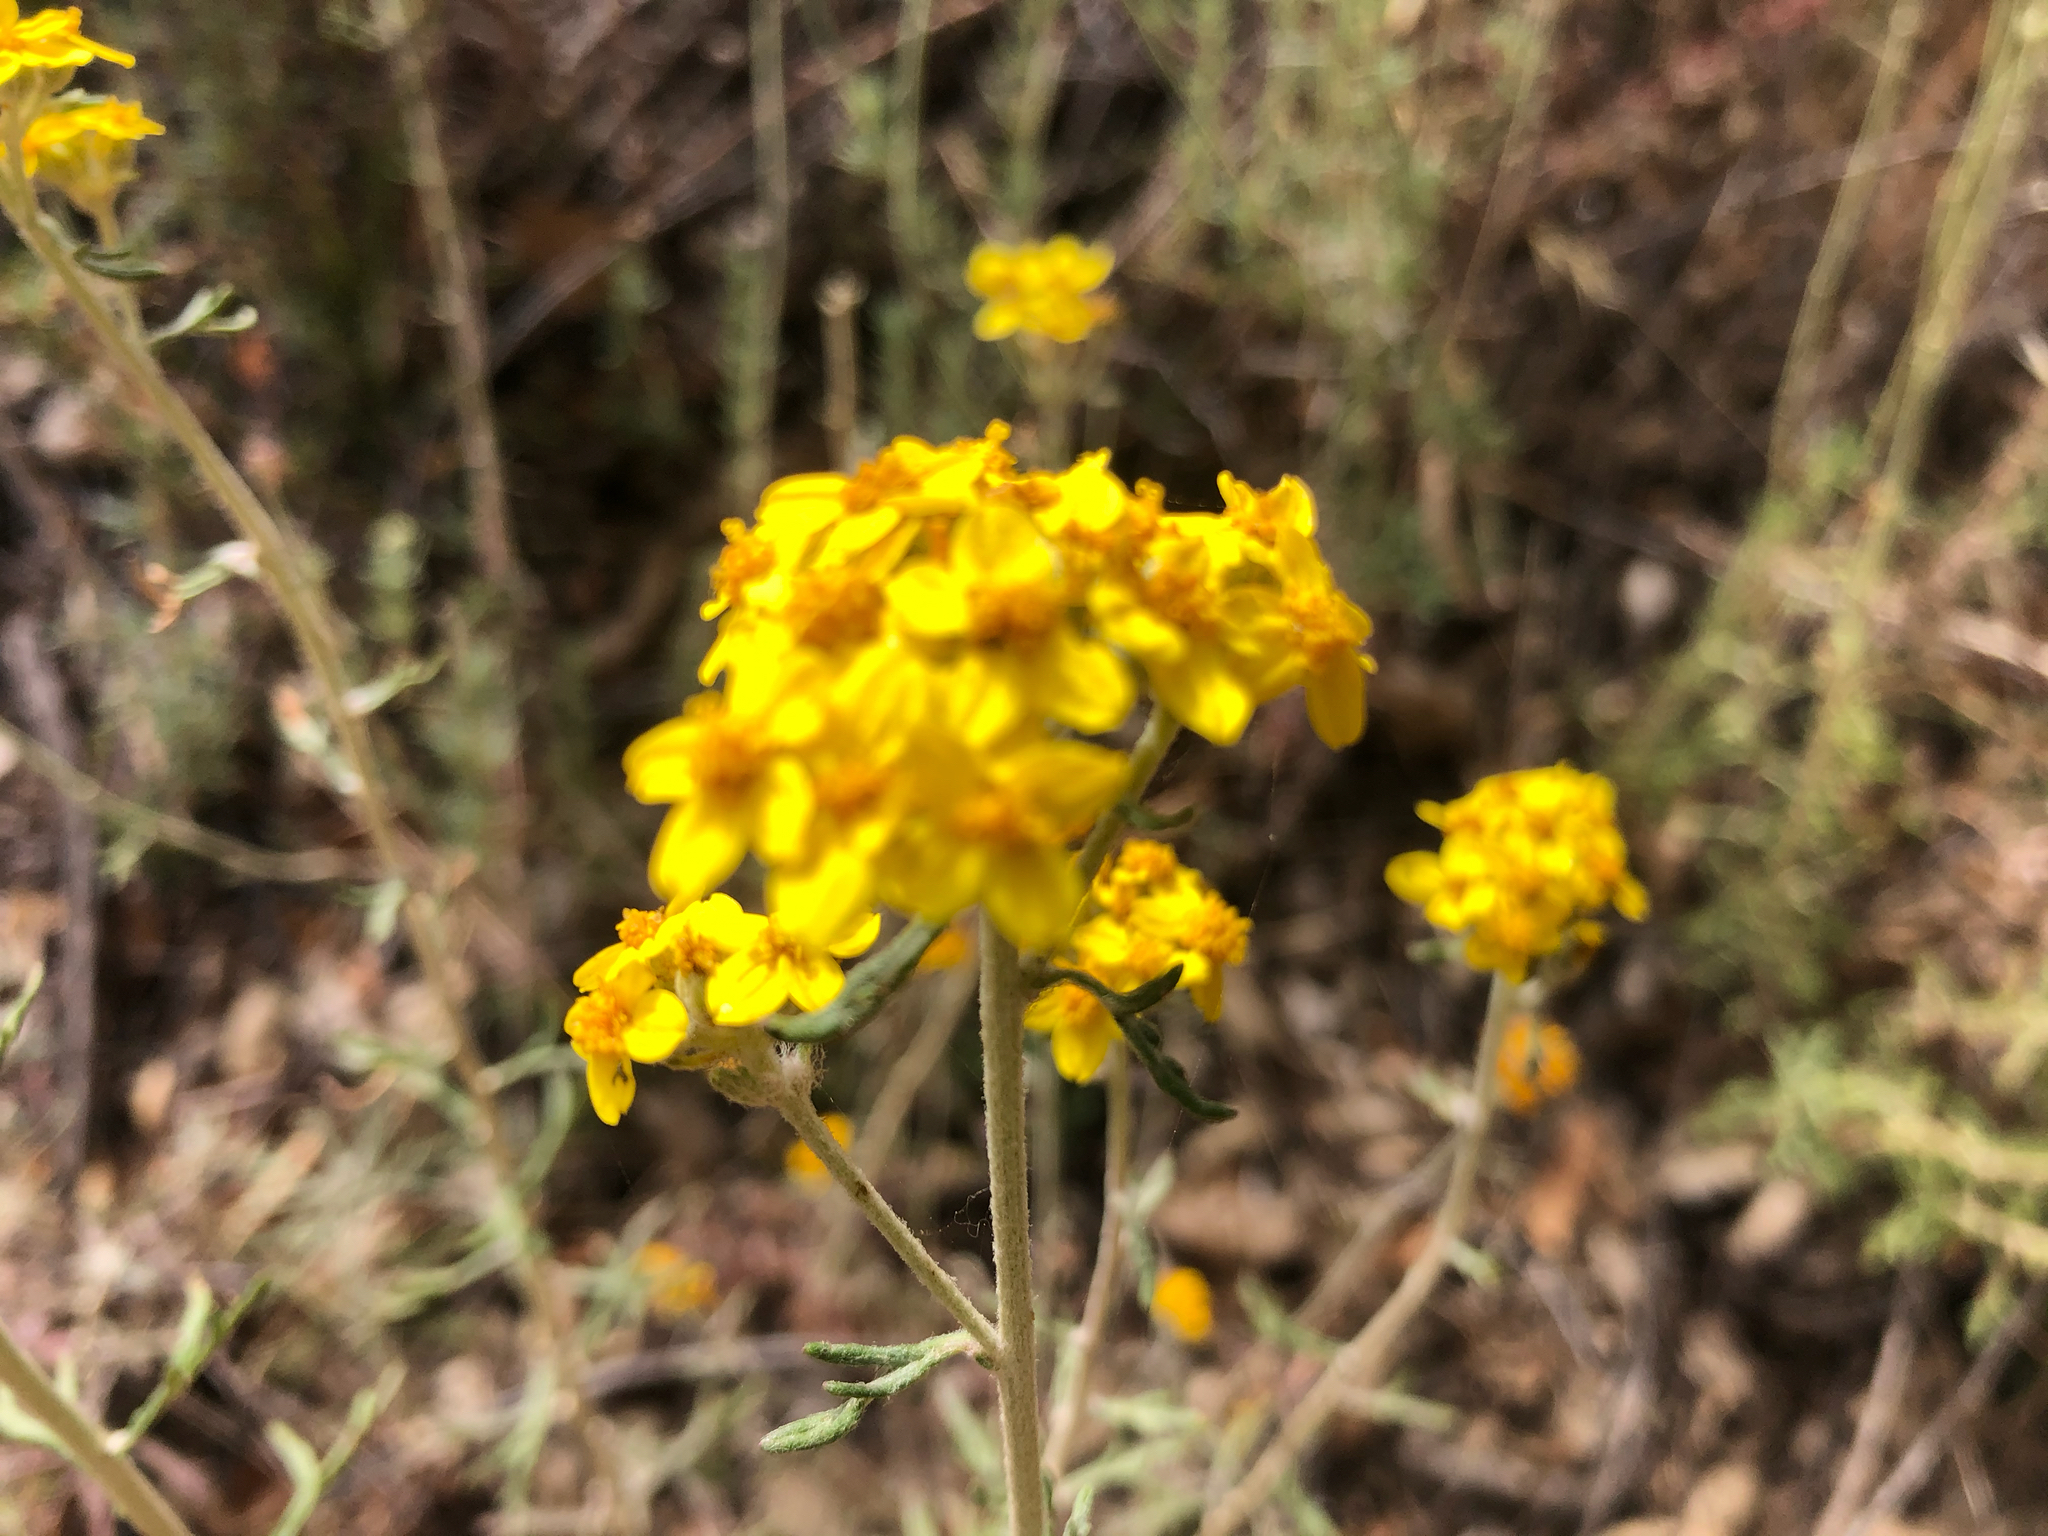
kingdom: Plantae
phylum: Tracheophyta
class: Magnoliopsida
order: Asterales
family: Asteraceae
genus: Eriophyllum
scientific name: Eriophyllum confertiflorum
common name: Golden-yarrow
